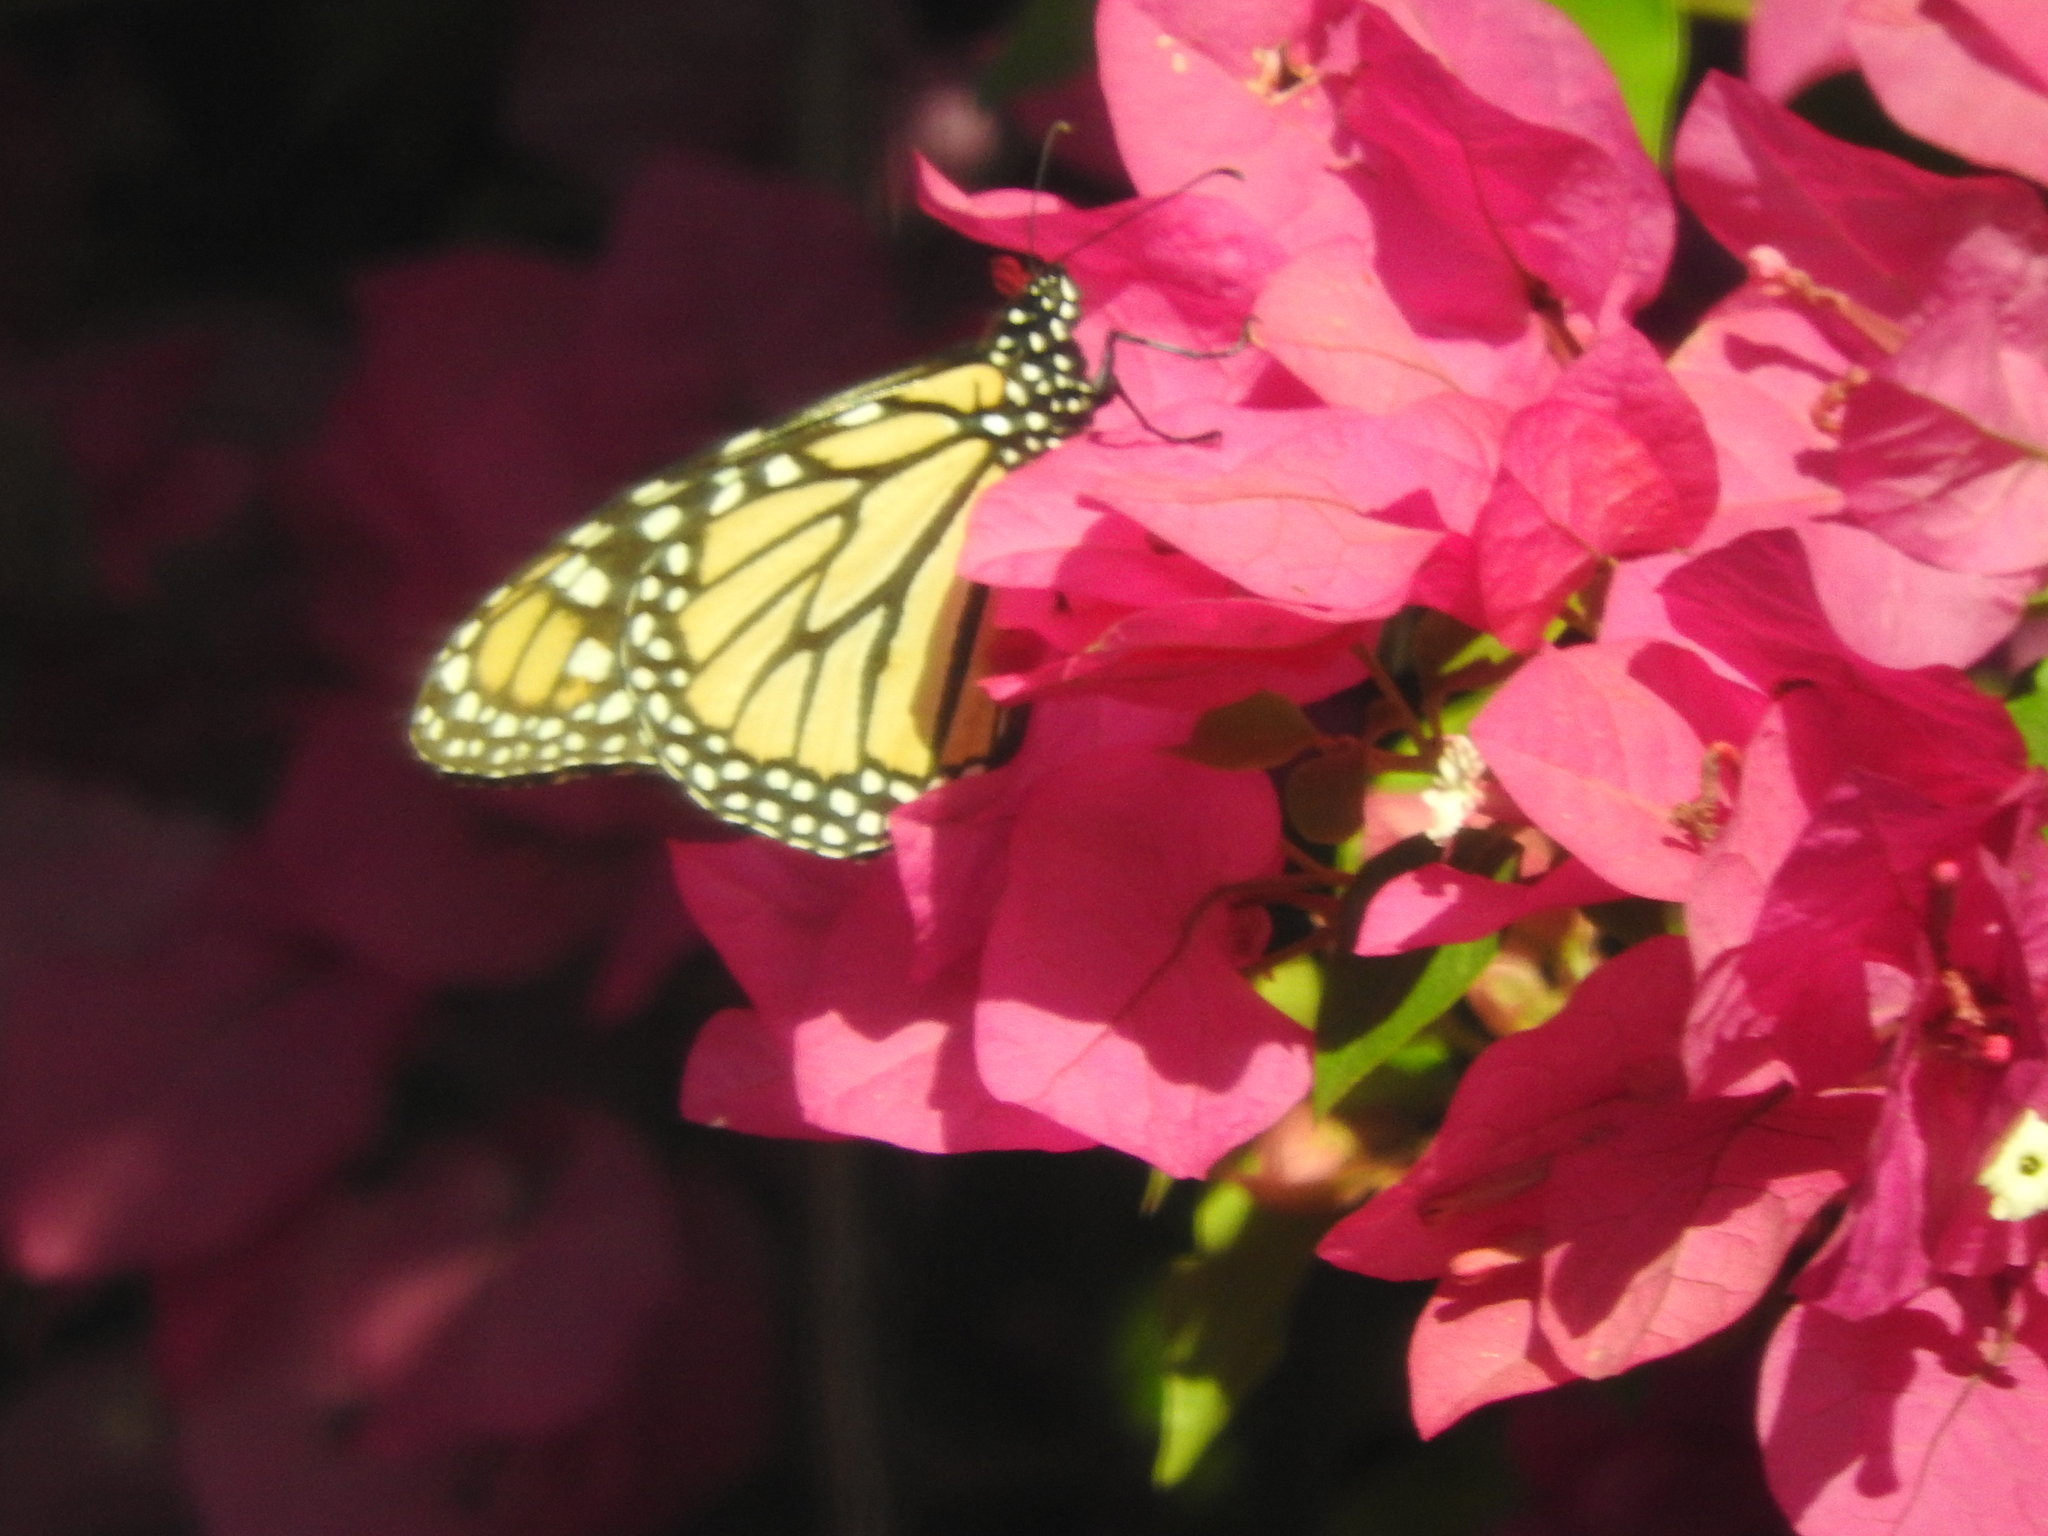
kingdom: Animalia
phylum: Arthropoda
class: Insecta
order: Lepidoptera
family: Nymphalidae
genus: Danaus
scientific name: Danaus plexippus
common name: Monarch
